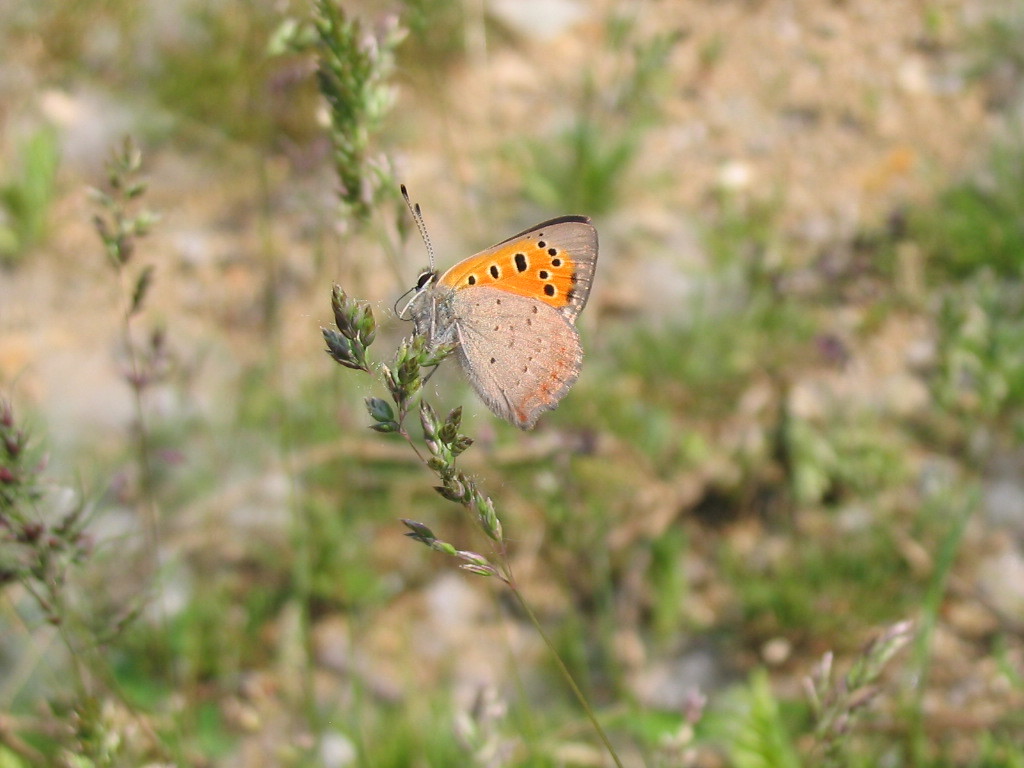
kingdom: Animalia
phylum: Arthropoda
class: Insecta
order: Lepidoptera
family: Lycaenidae
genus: Lycaena
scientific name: Lycaena phlaeas
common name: Small copper
